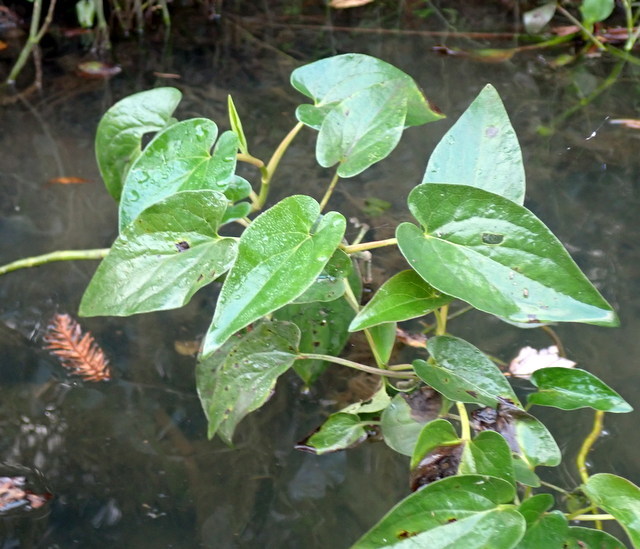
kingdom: Plantae
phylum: Tracheophyta
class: Magnoliopsida
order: Piperales
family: Saururaceae
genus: Saururus
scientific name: Saururus cernuus
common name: Lizard's-tail
